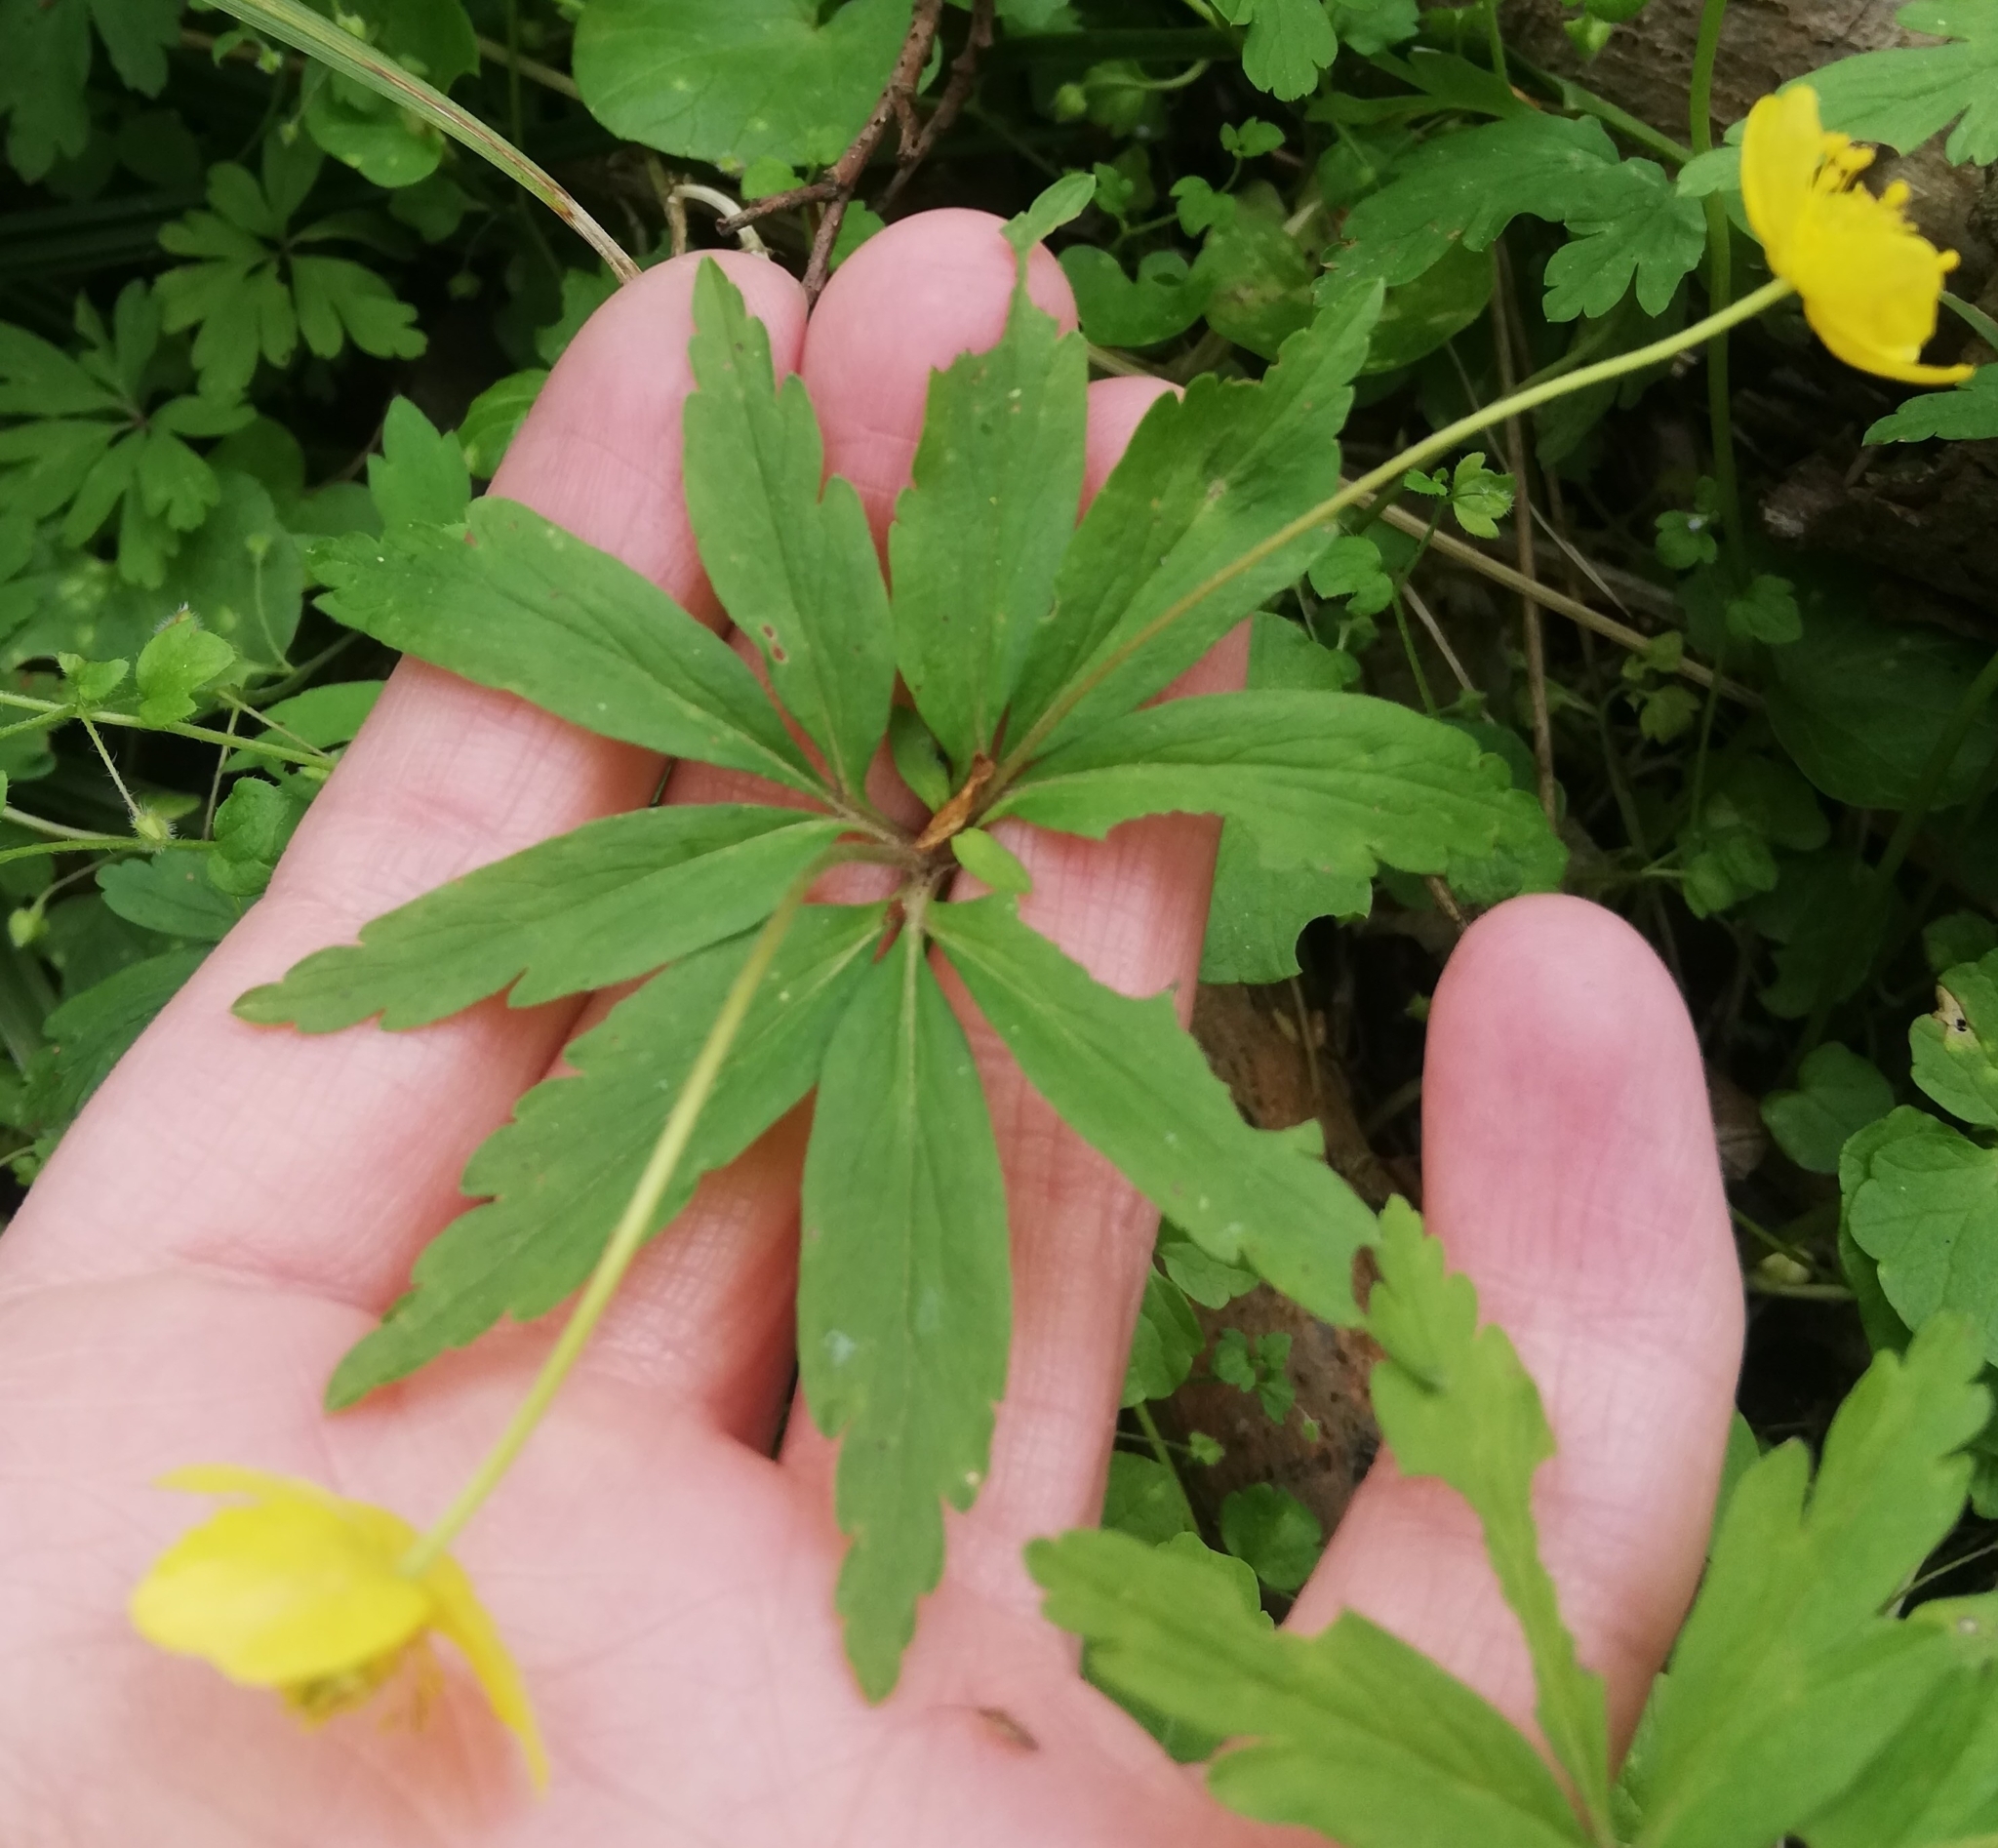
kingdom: Plantae
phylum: Tracheophyta
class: Magnoliopsida
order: Ranunculales
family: Ranunculaceae
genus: Anemone
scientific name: Anemone ranunculoides
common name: Yellow anemone
